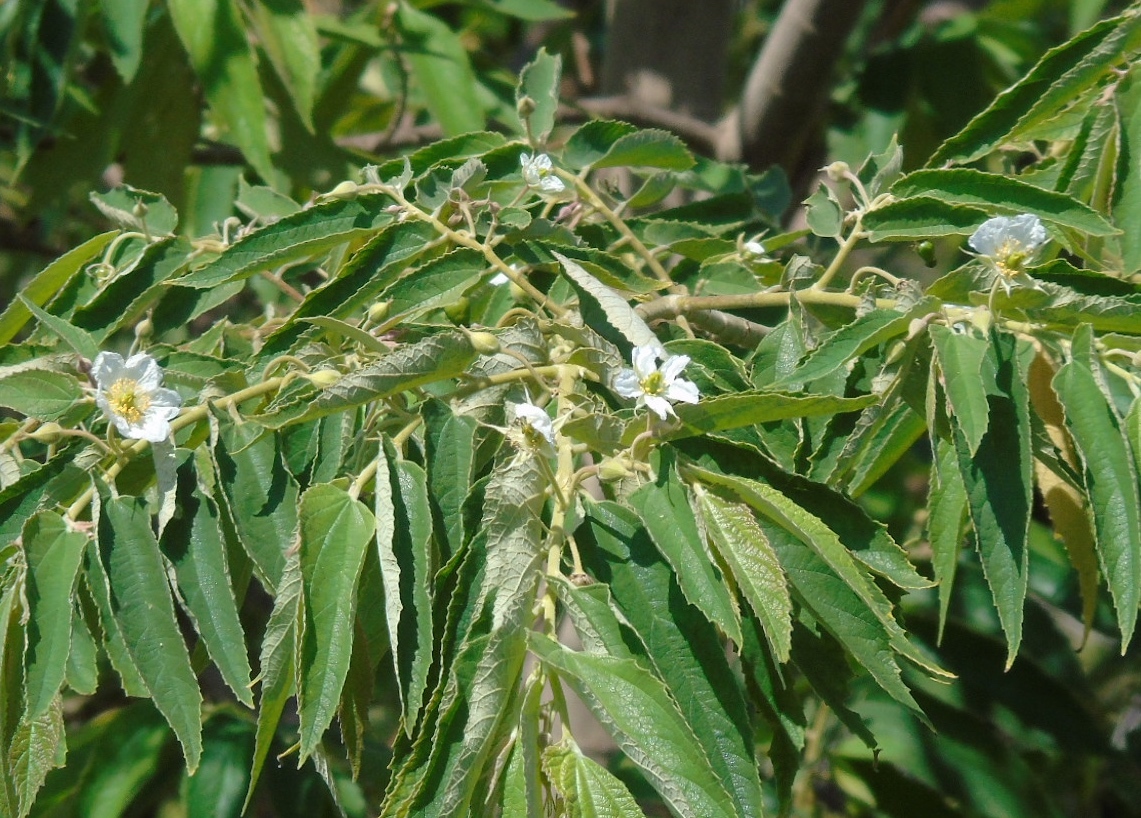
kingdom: Plantae
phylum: Tracheophyta
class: Magnoliopsida
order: Malvales
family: Muntingiaceae
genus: Muntingia
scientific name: Muntingia calabura
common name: Strawberrytree
